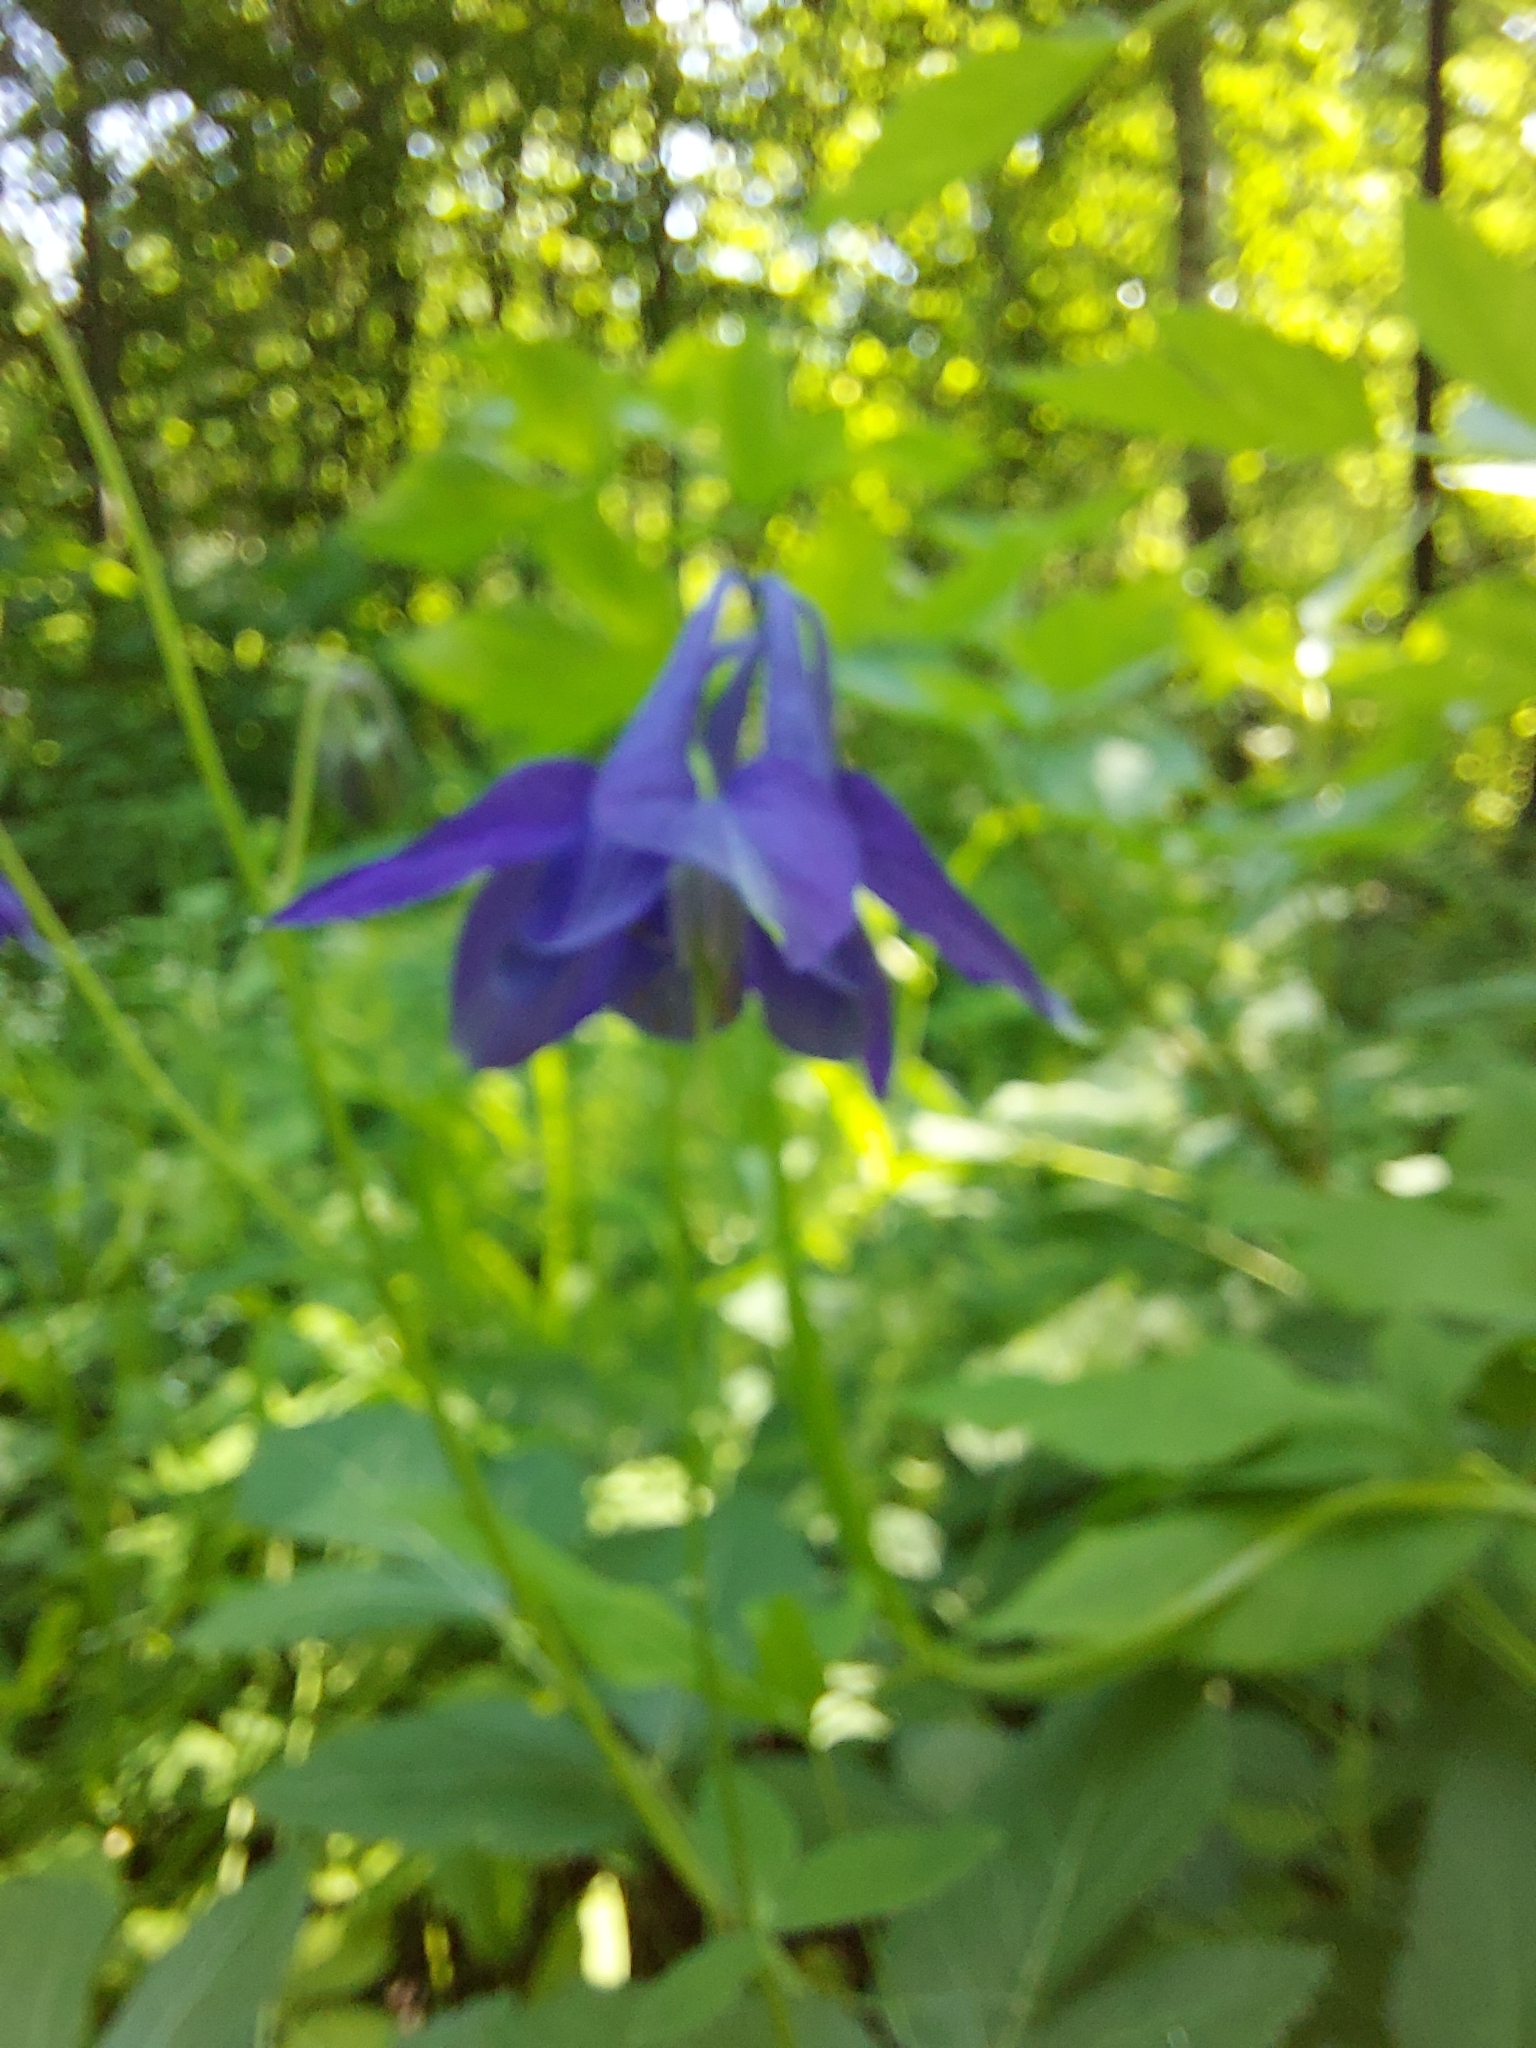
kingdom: Plantae
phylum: Tracheophyta
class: Magnoliopsida
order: Ranunculales
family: Ranunculaceae
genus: Aquilegia
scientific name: Aquilegia vulgaris
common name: Columbine
